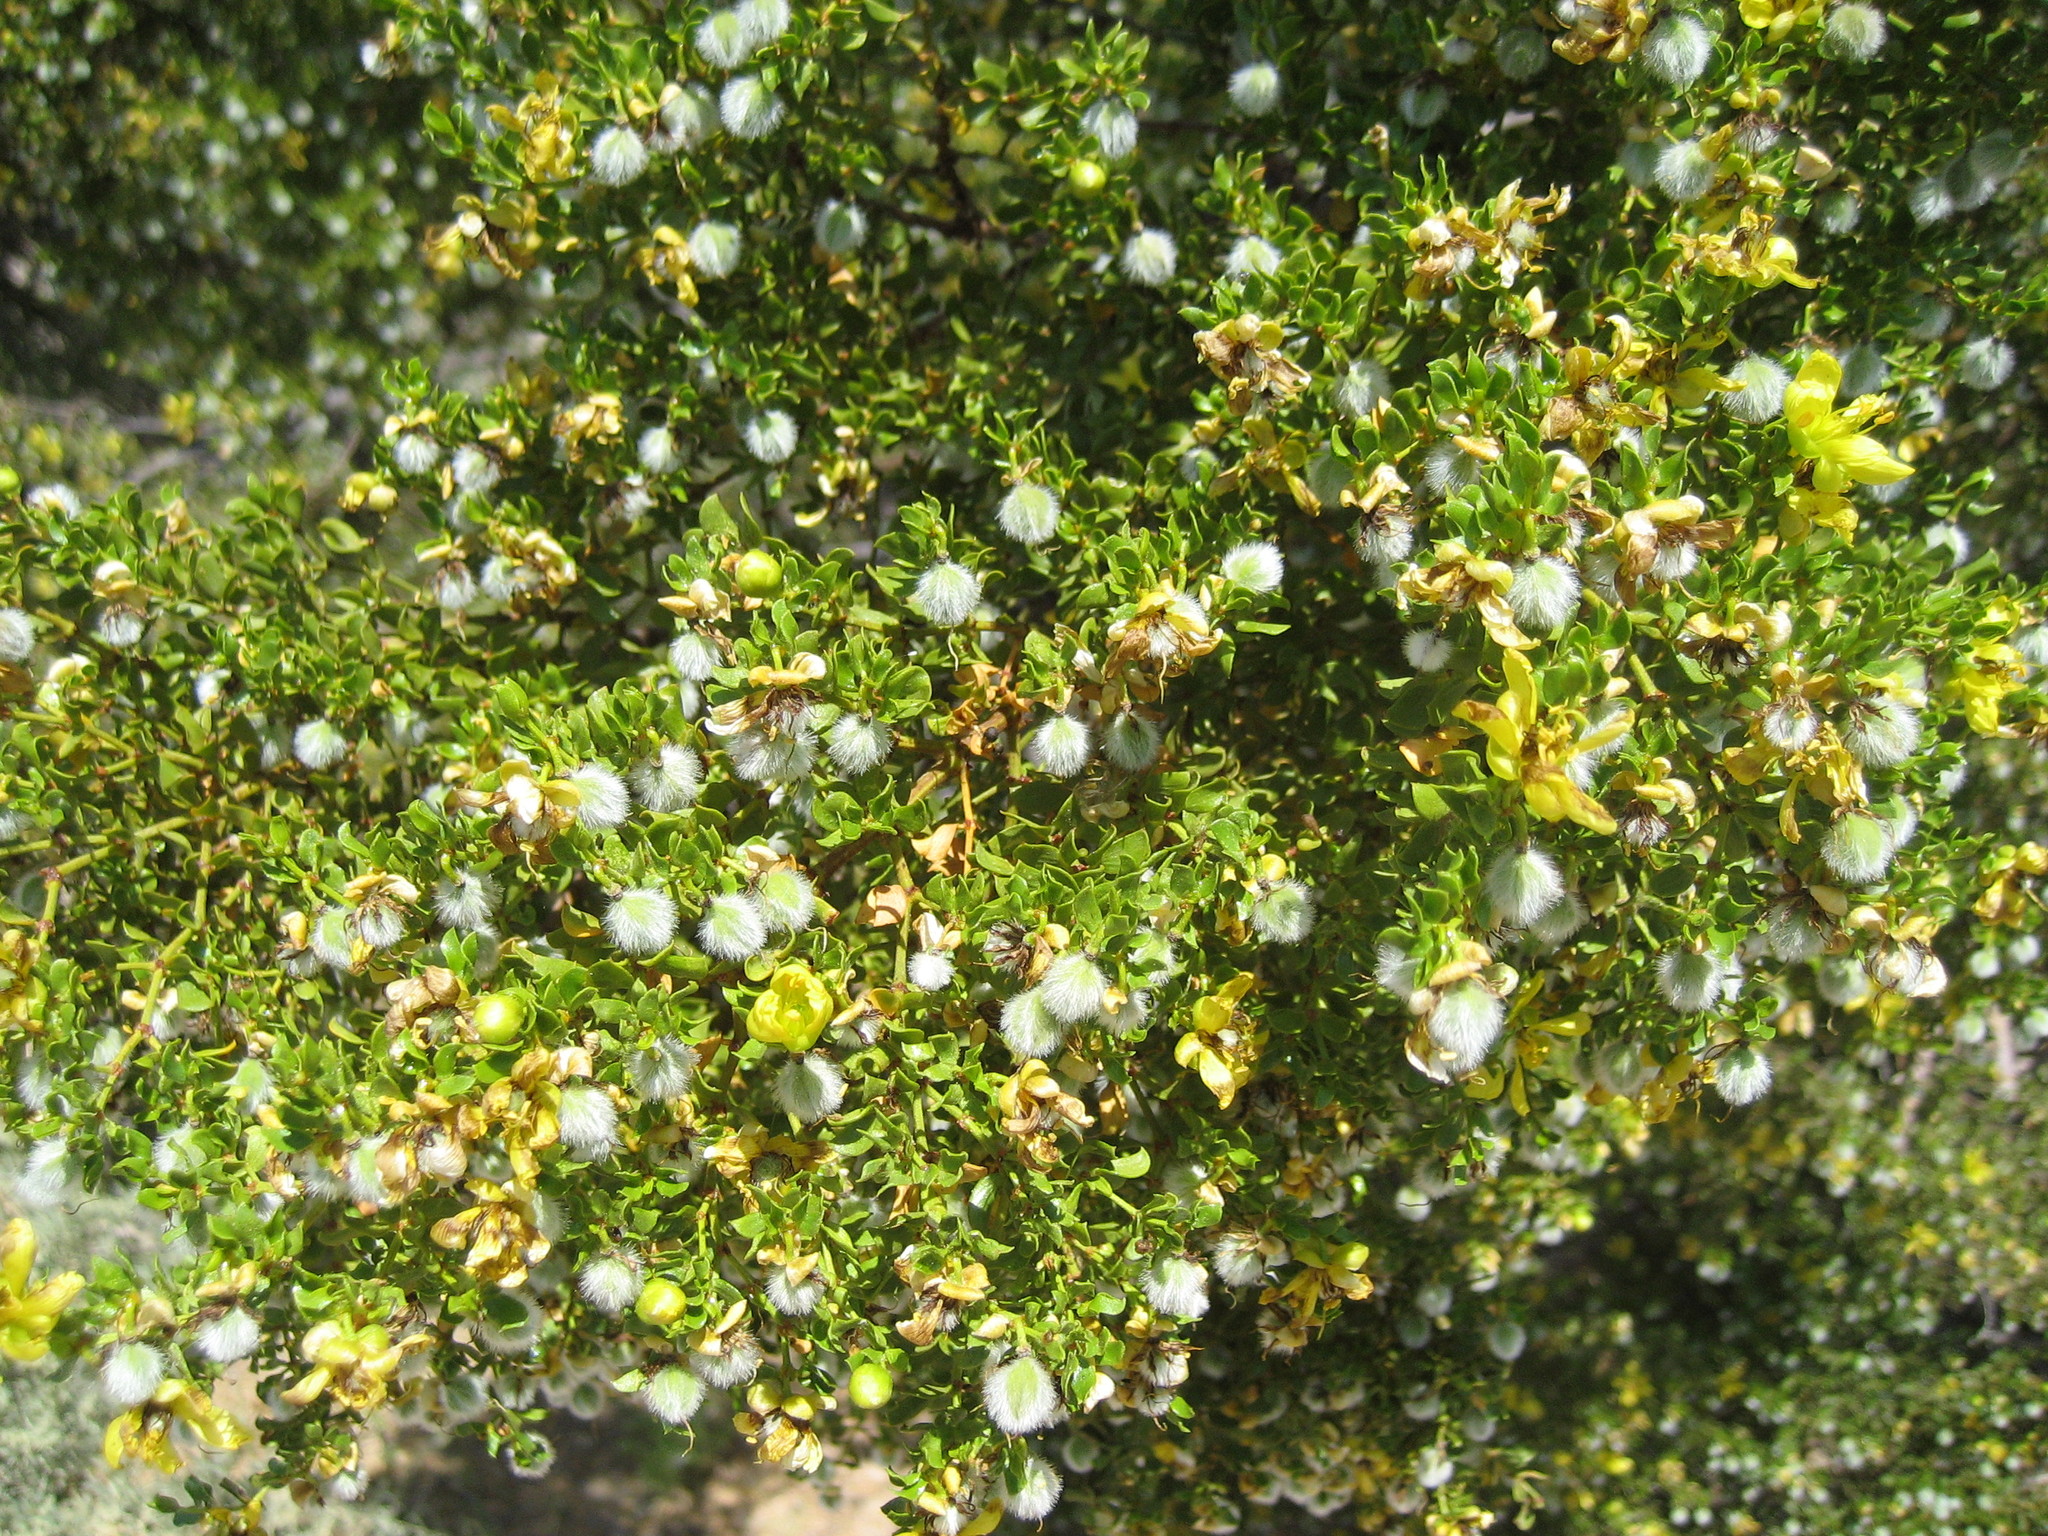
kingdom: Plantae
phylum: Tracheophyta
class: Magnoliopsida
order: Zygophyllales
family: Zygophyllaceae
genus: Larrea
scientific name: Larrea tridentata
